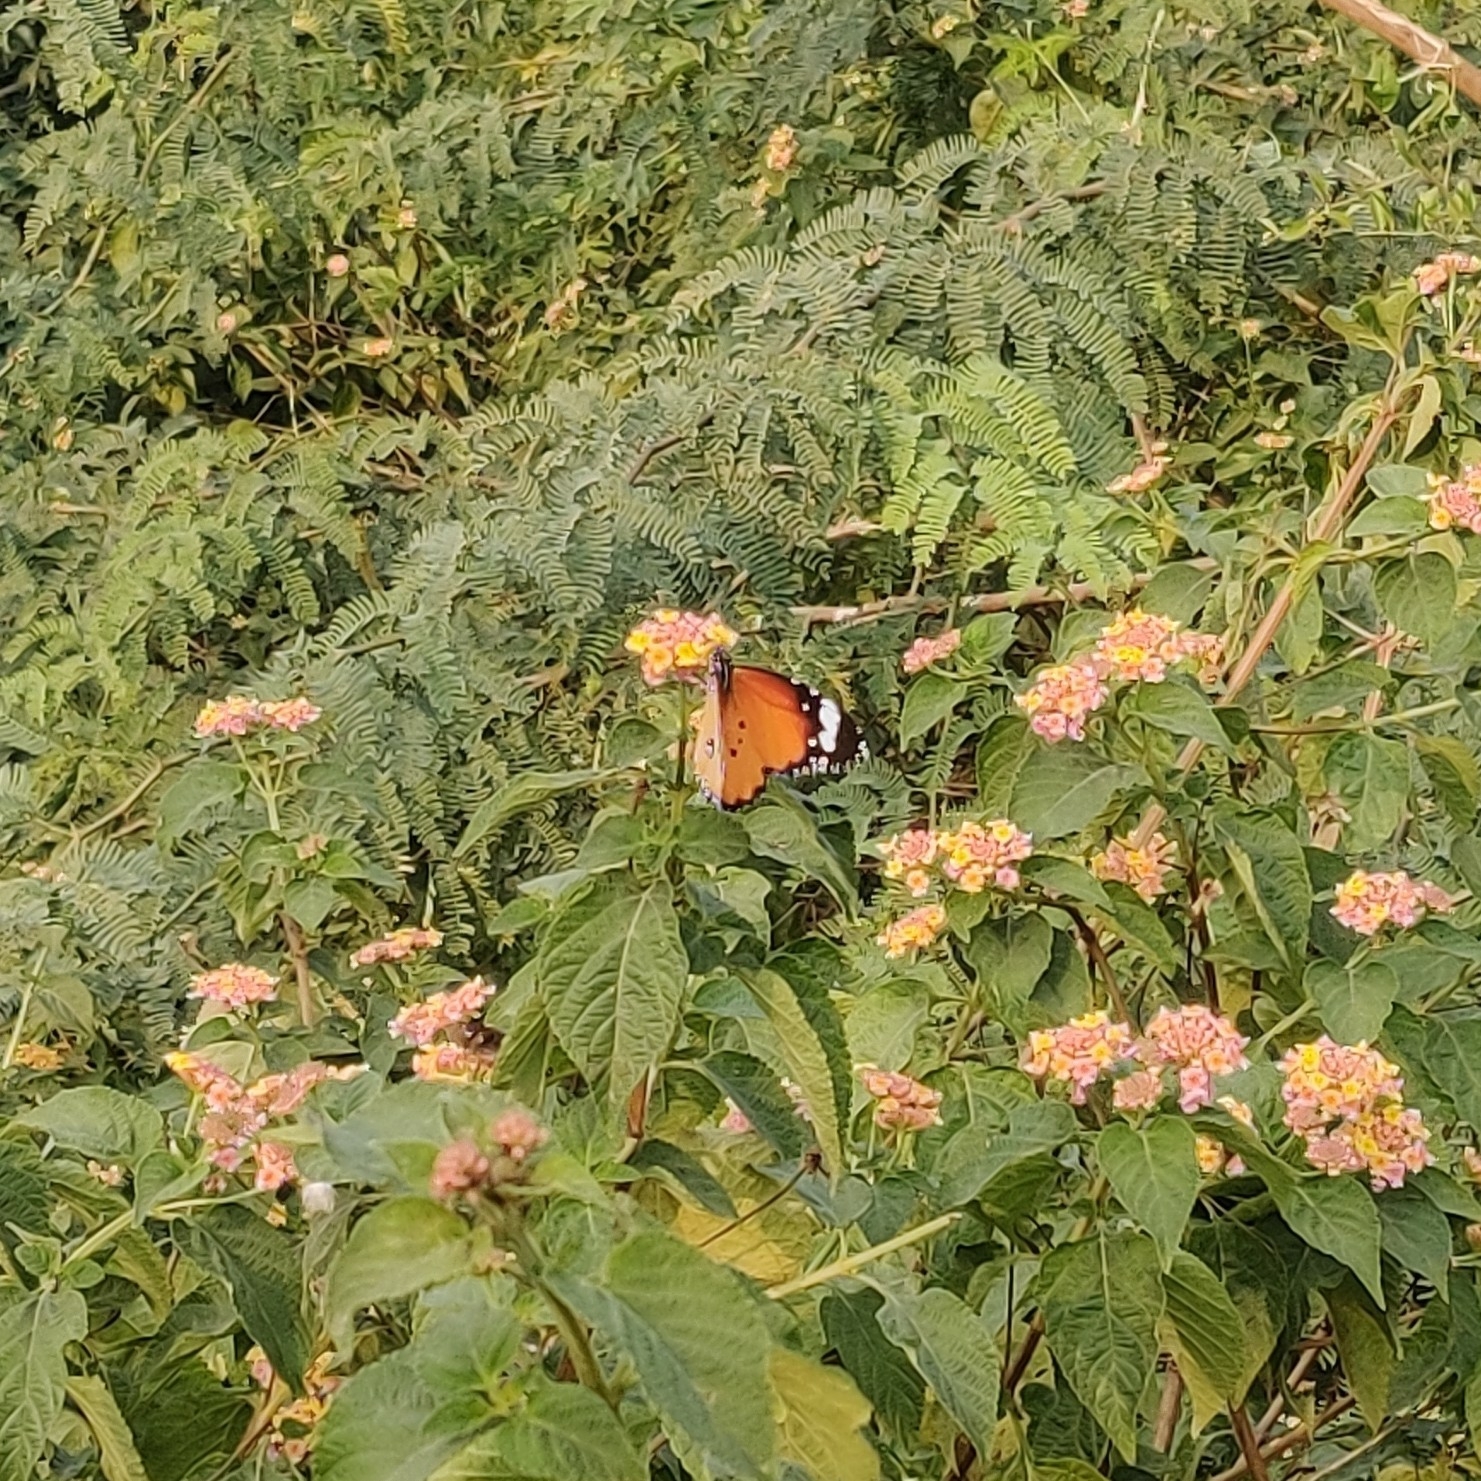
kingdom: Animalia
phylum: Arthropoda
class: Insecta
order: Lepidoptera
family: Nymphalidae
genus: Danaus
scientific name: Danaus chrysippus
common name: Plain tiger
